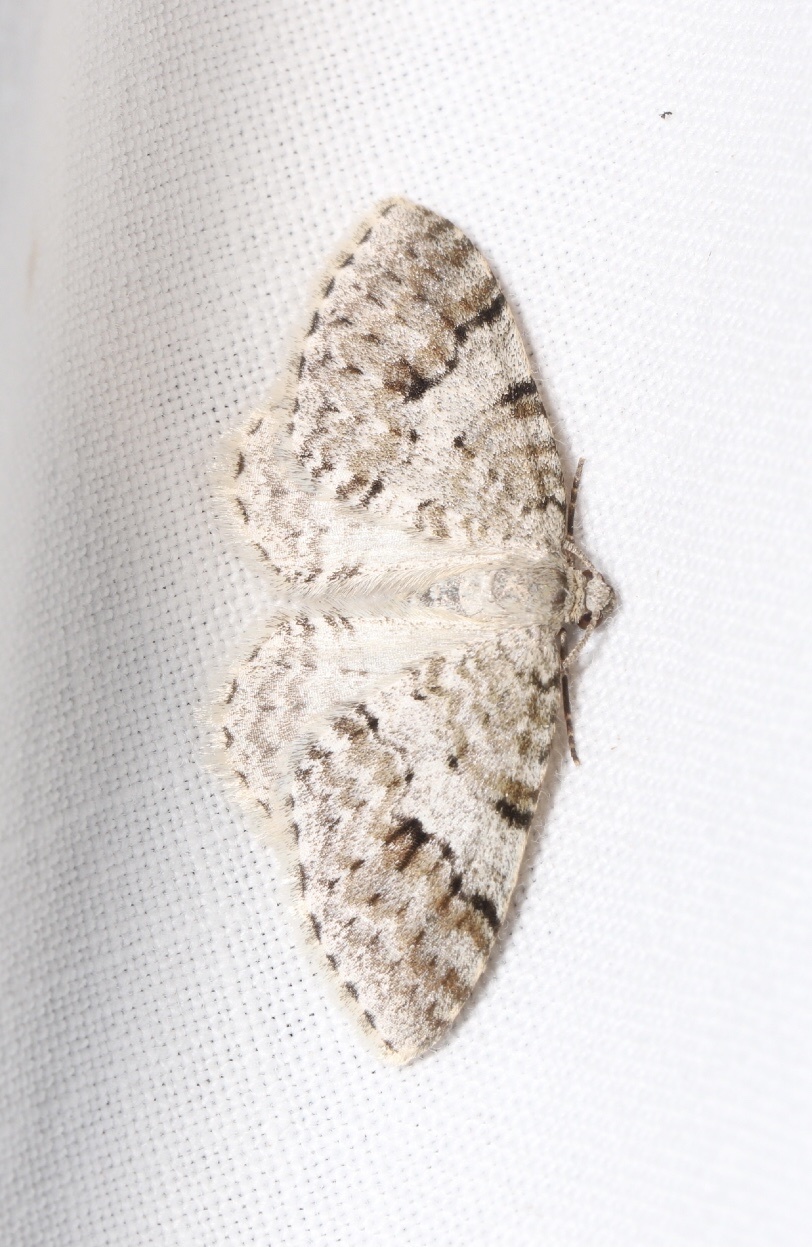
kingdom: Animalia
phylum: Arthropoda
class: Insecta
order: Lepidoptera
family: Geometridae
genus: Venusia
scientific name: Venusia cambrica
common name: Welsh wave
